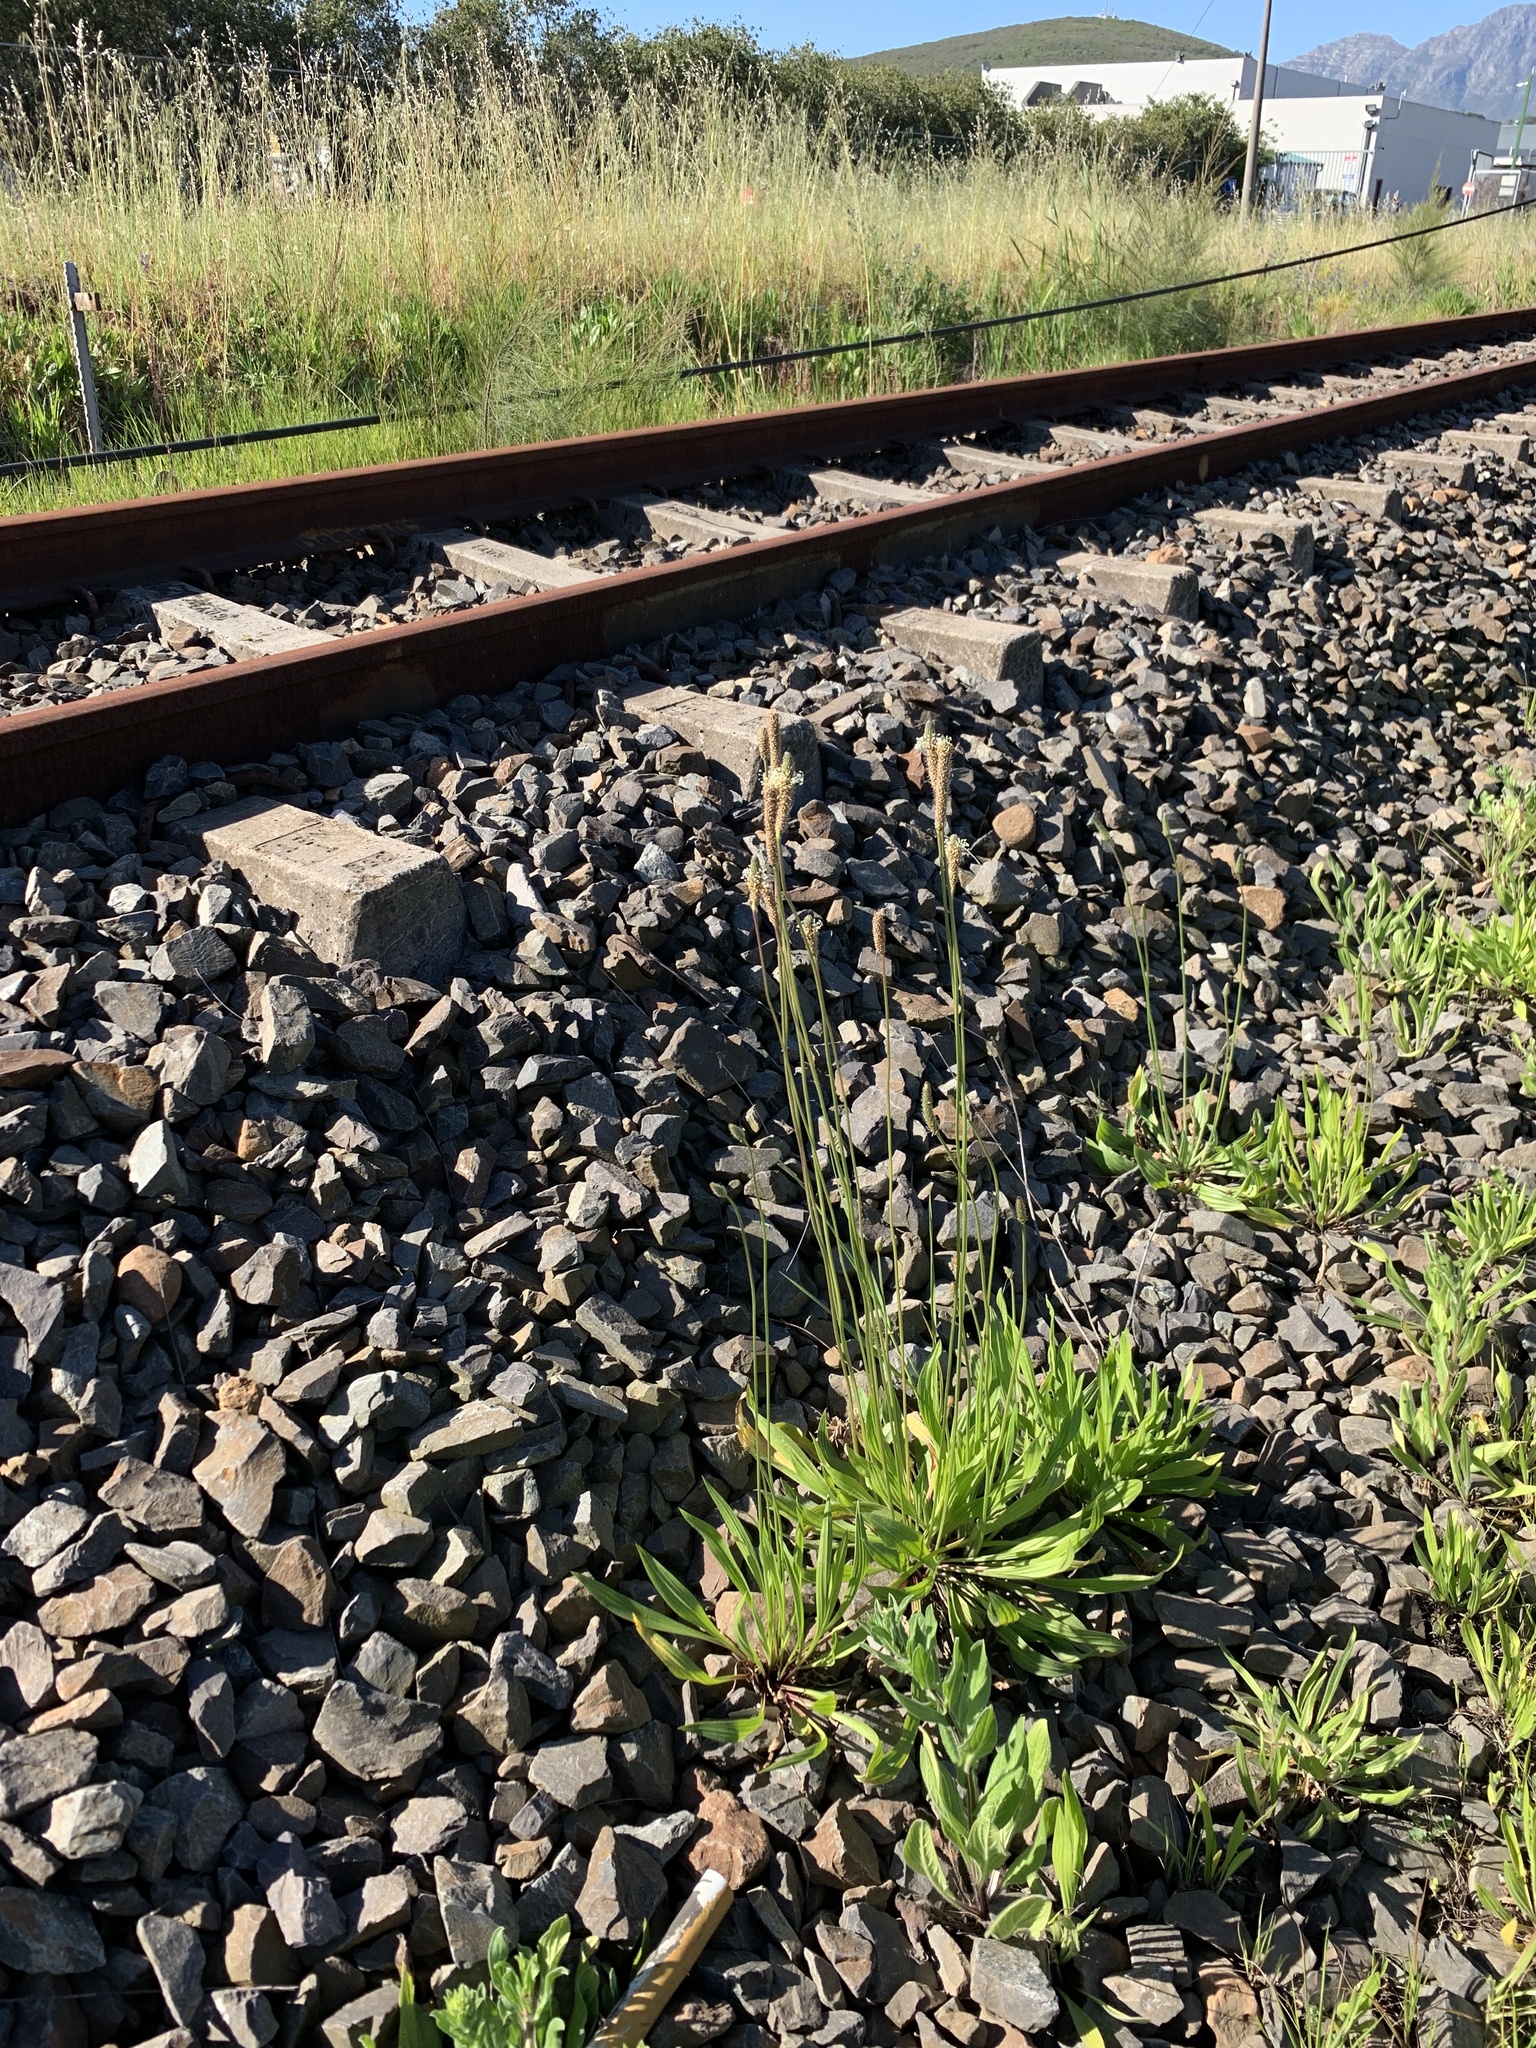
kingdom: Plantae
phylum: Tracheophyta
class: Magnoliopsida
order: Lamiales
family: Plantaginaceae
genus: Plantago
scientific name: Plantago lanceolata
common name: Ribwort plantain
